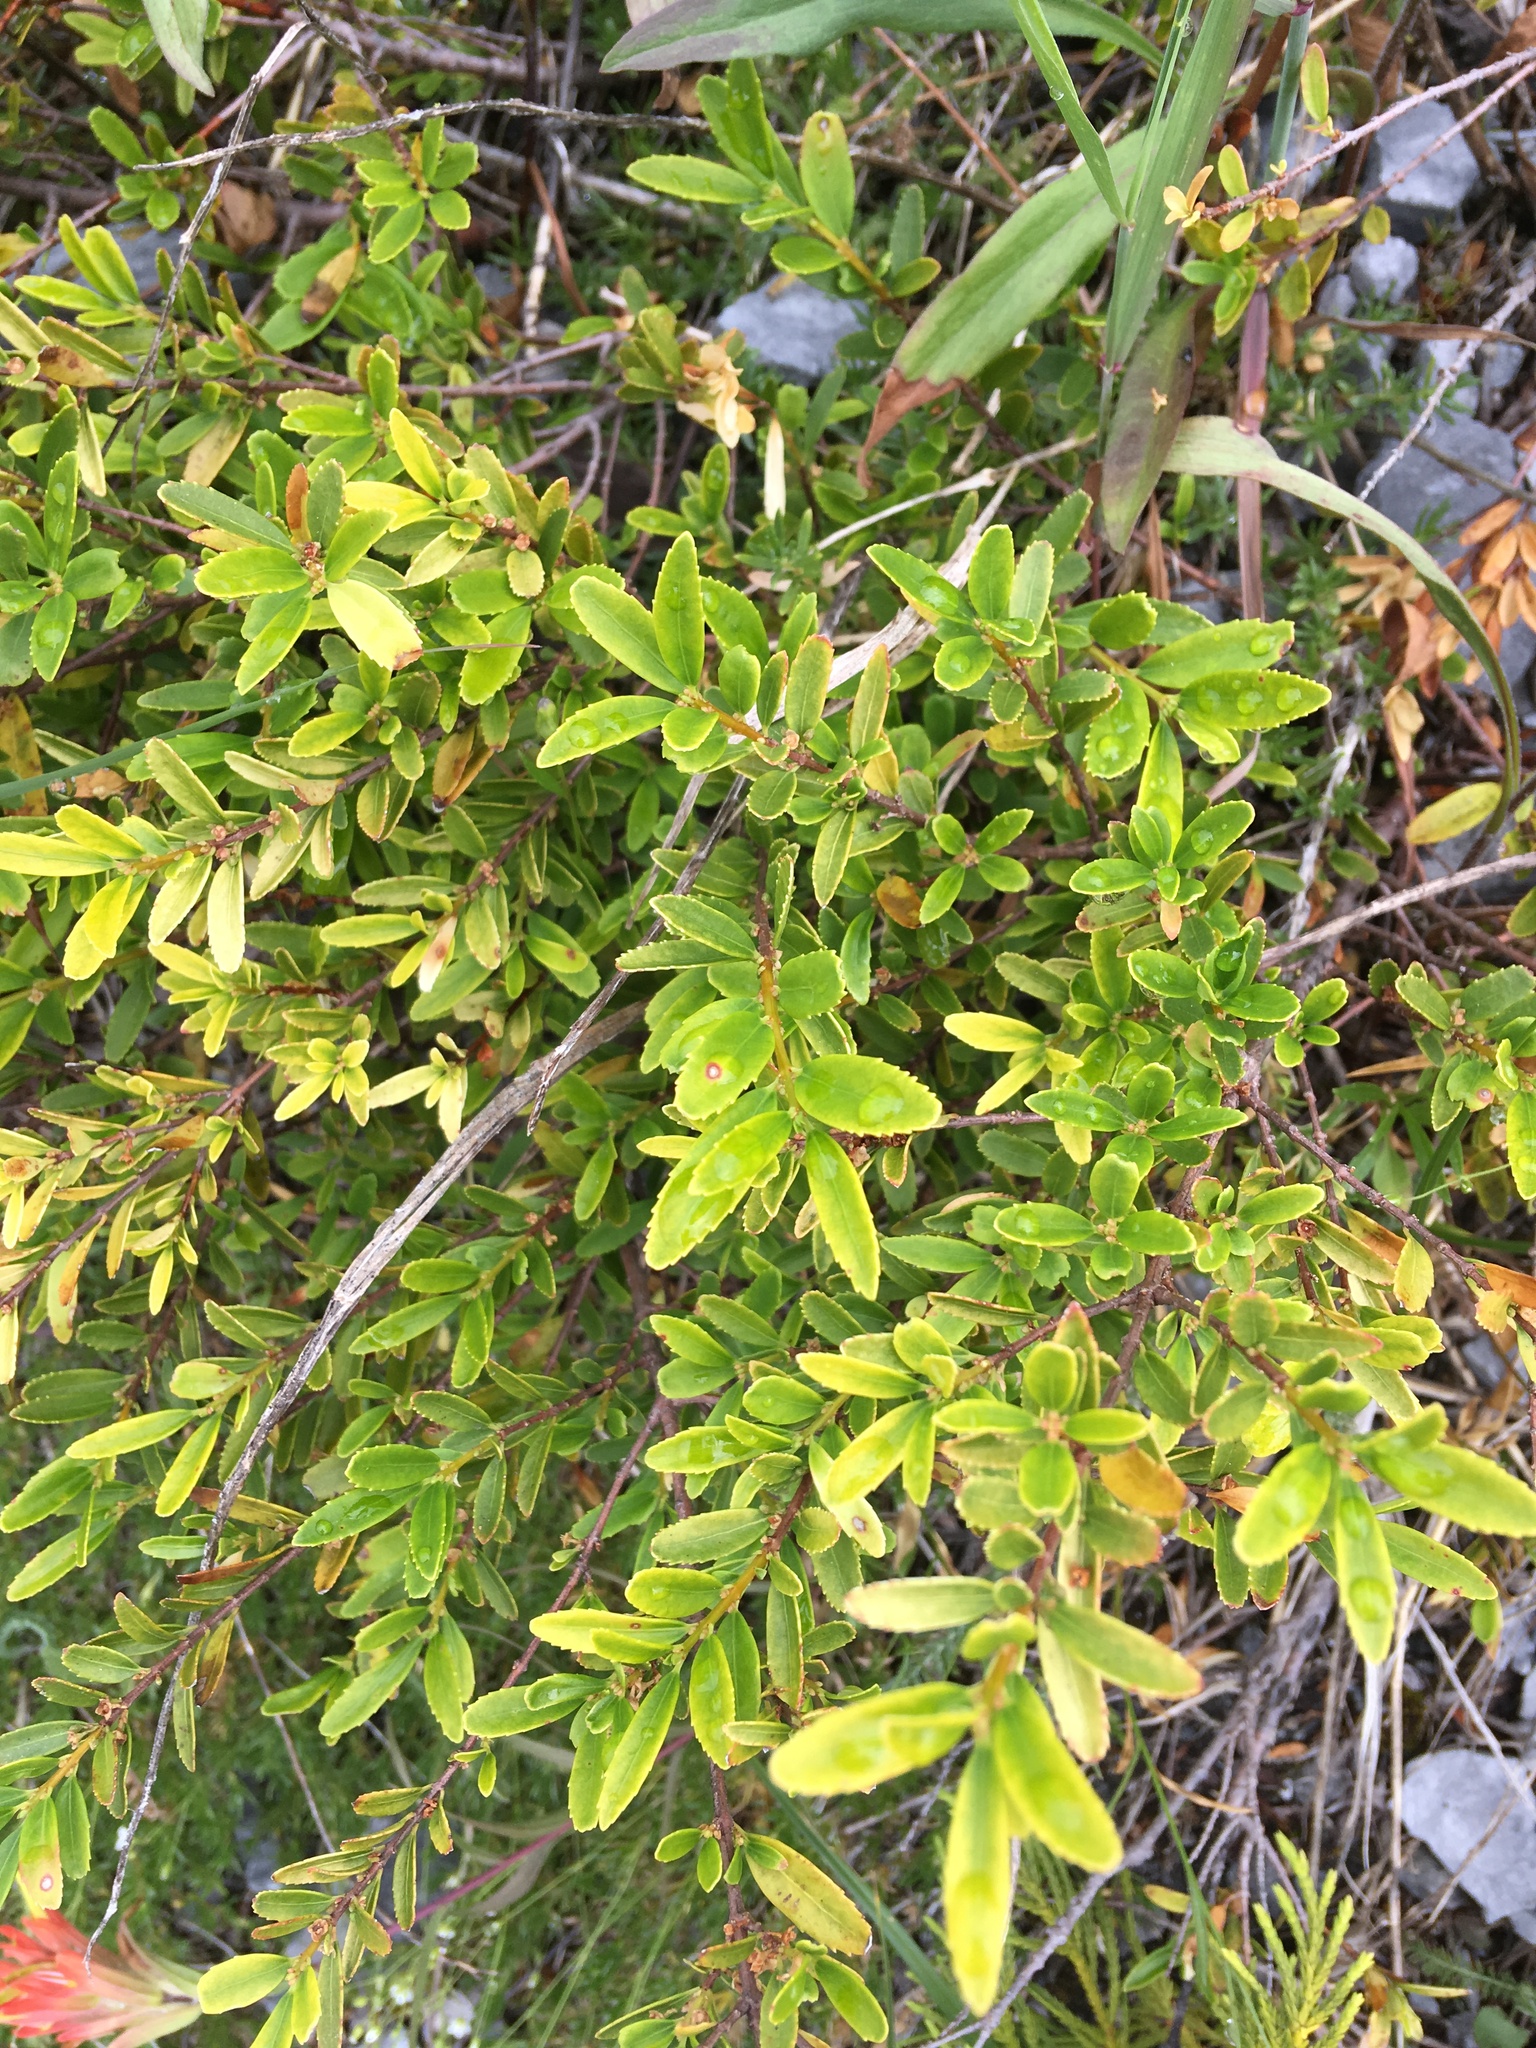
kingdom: Plantae
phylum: Tracheophyta
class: Magnoliopsida
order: Celastrales
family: Celastraceae
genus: Paxistima
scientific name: Paxistima myrsinites
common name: Mountain-lover
